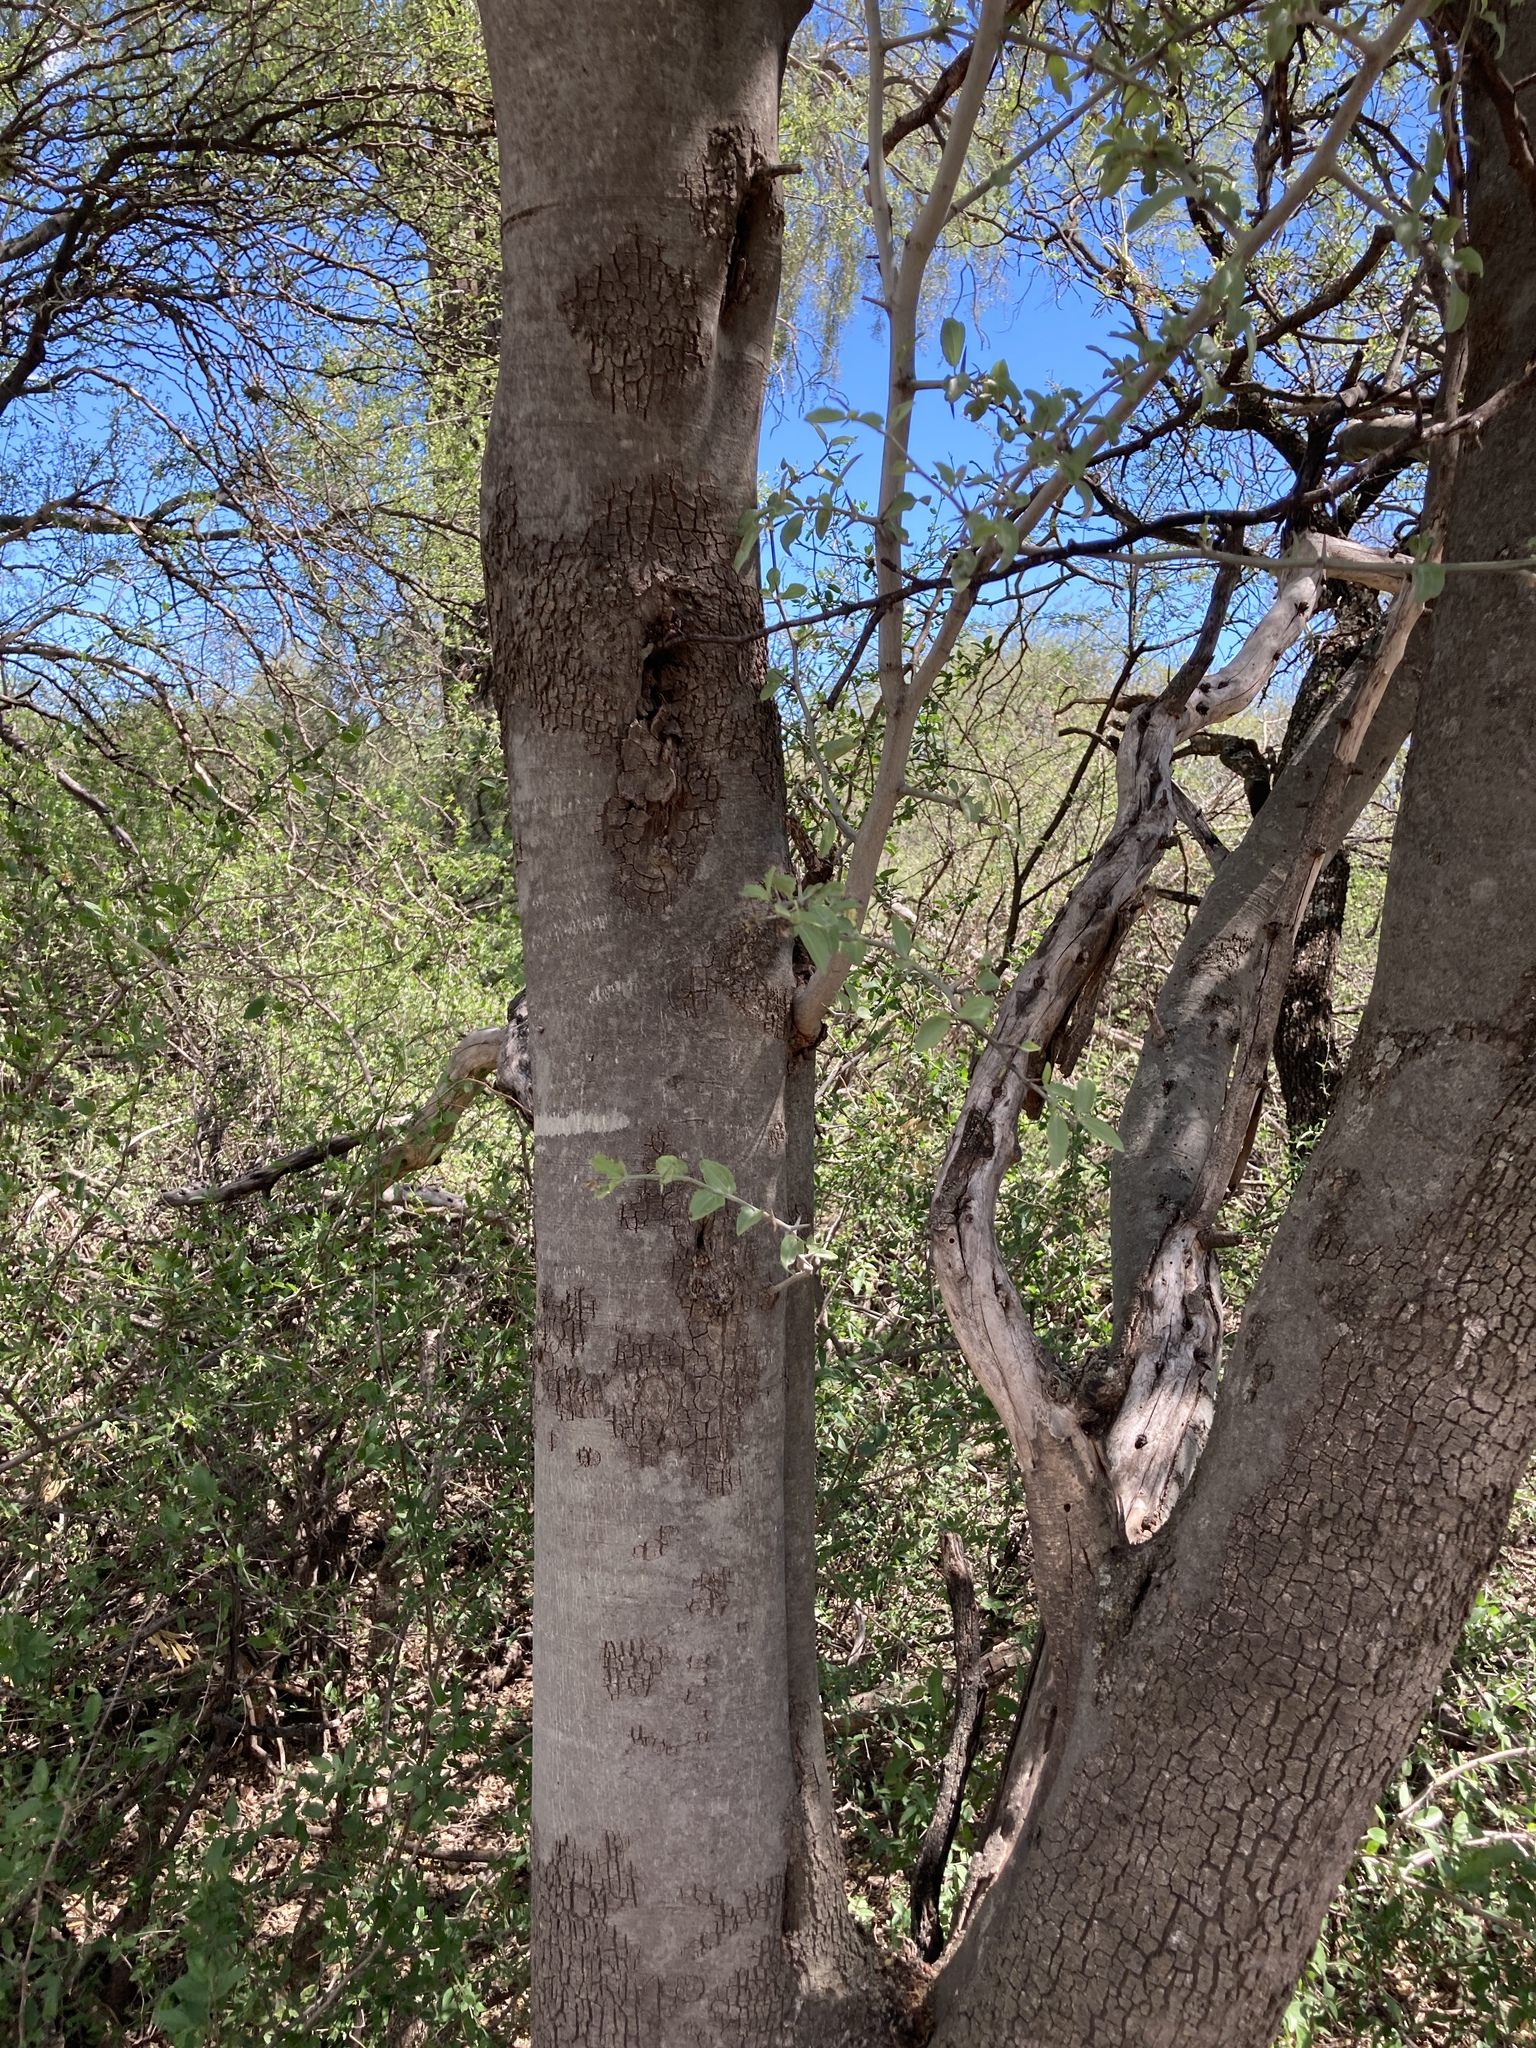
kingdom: Plantae
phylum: Tracheophyta
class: Magnoliopsida
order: Rosales
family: Rhamnaceae
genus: Sarcomphalus
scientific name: Sarcomphalus mistol
